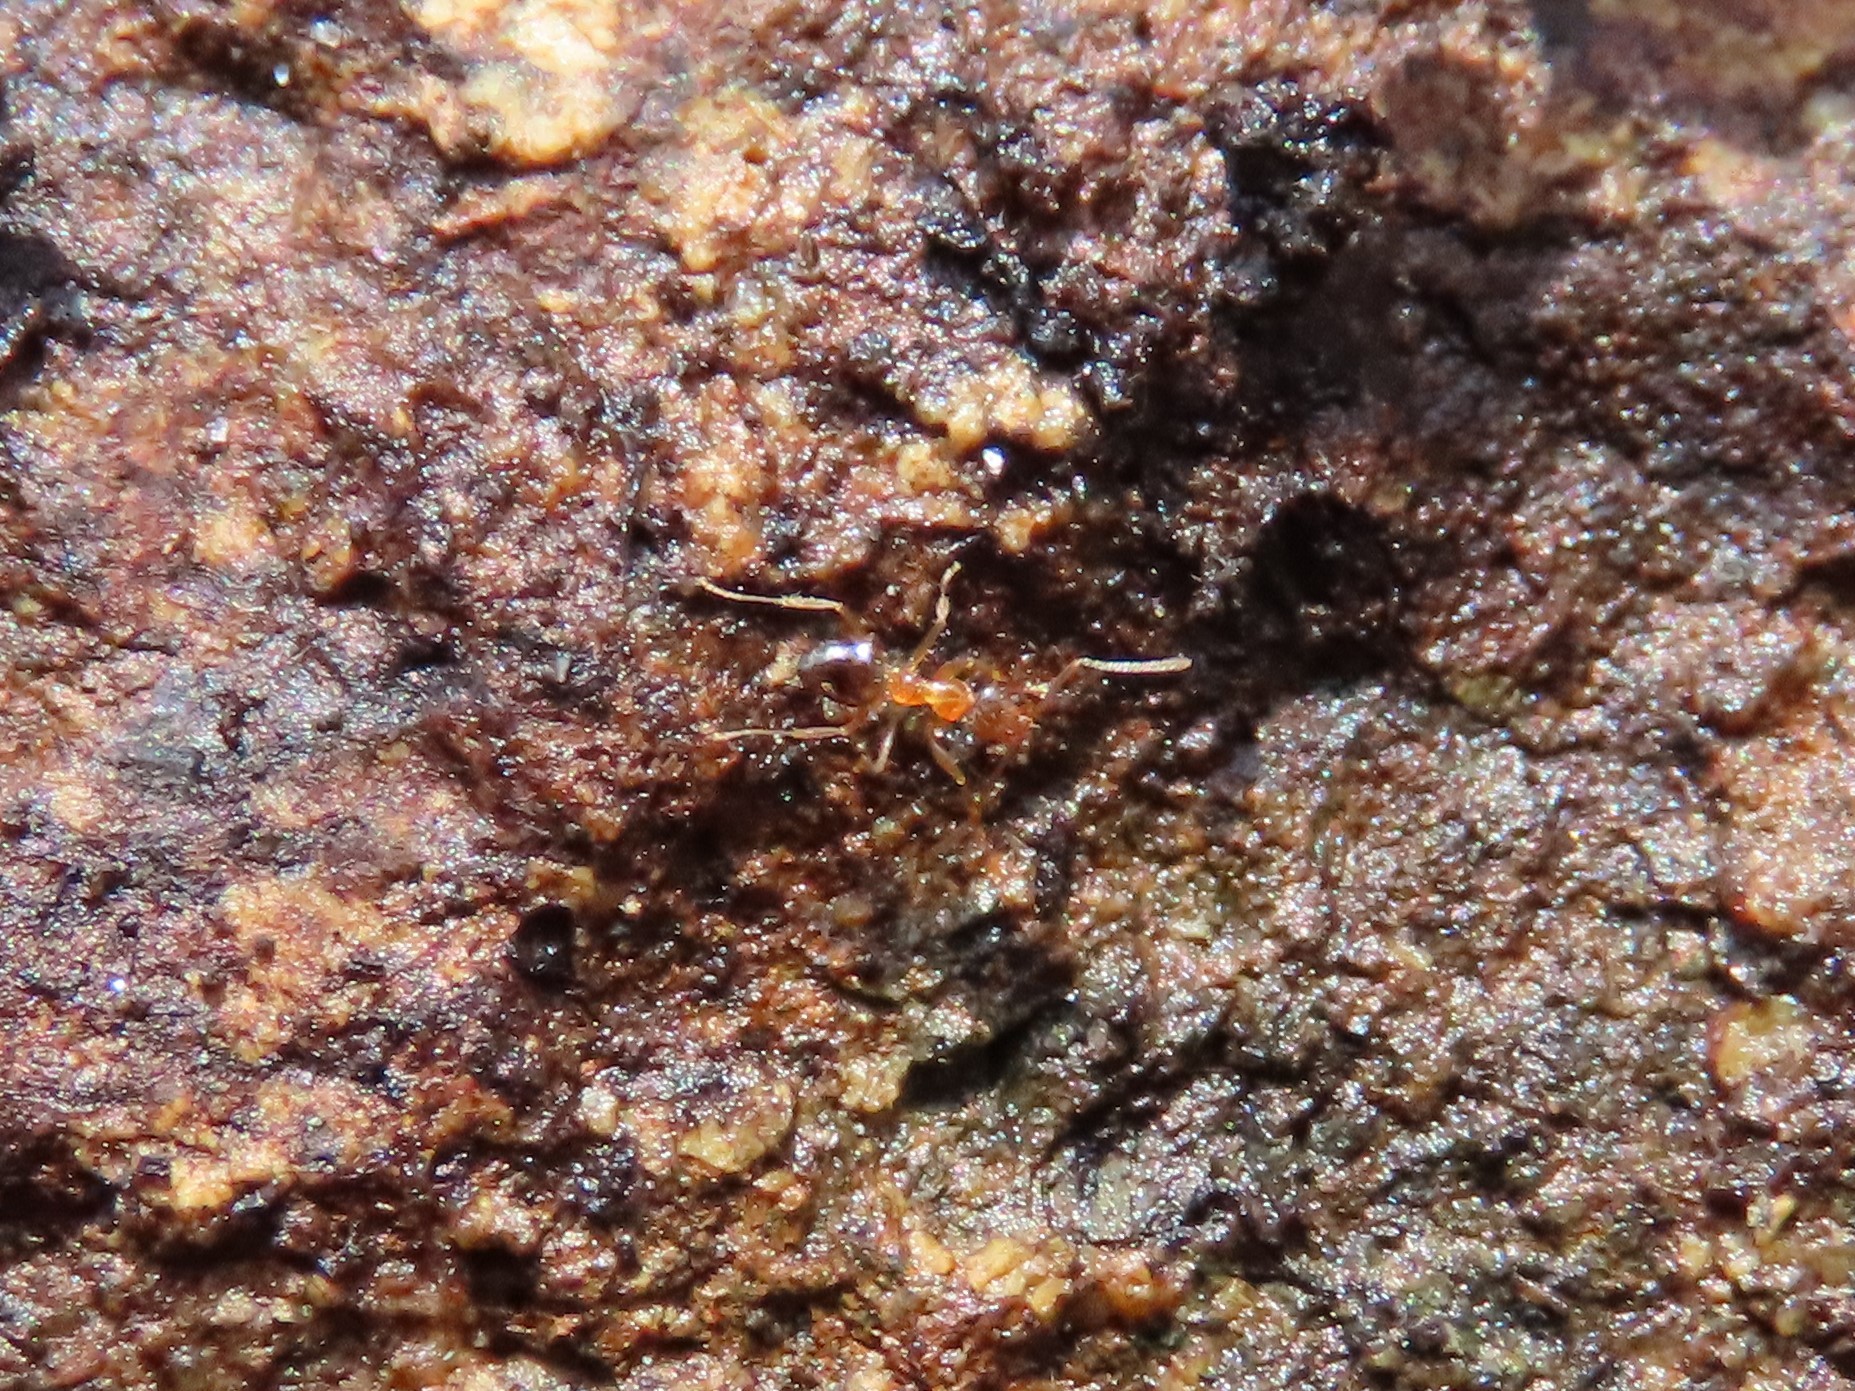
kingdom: Animalia
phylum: Arthropoda
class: Insecta
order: Hymenoptera
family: Formicidae
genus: Paratrechina
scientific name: Paratrechina flavipes
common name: Eastern asian formicine ant
